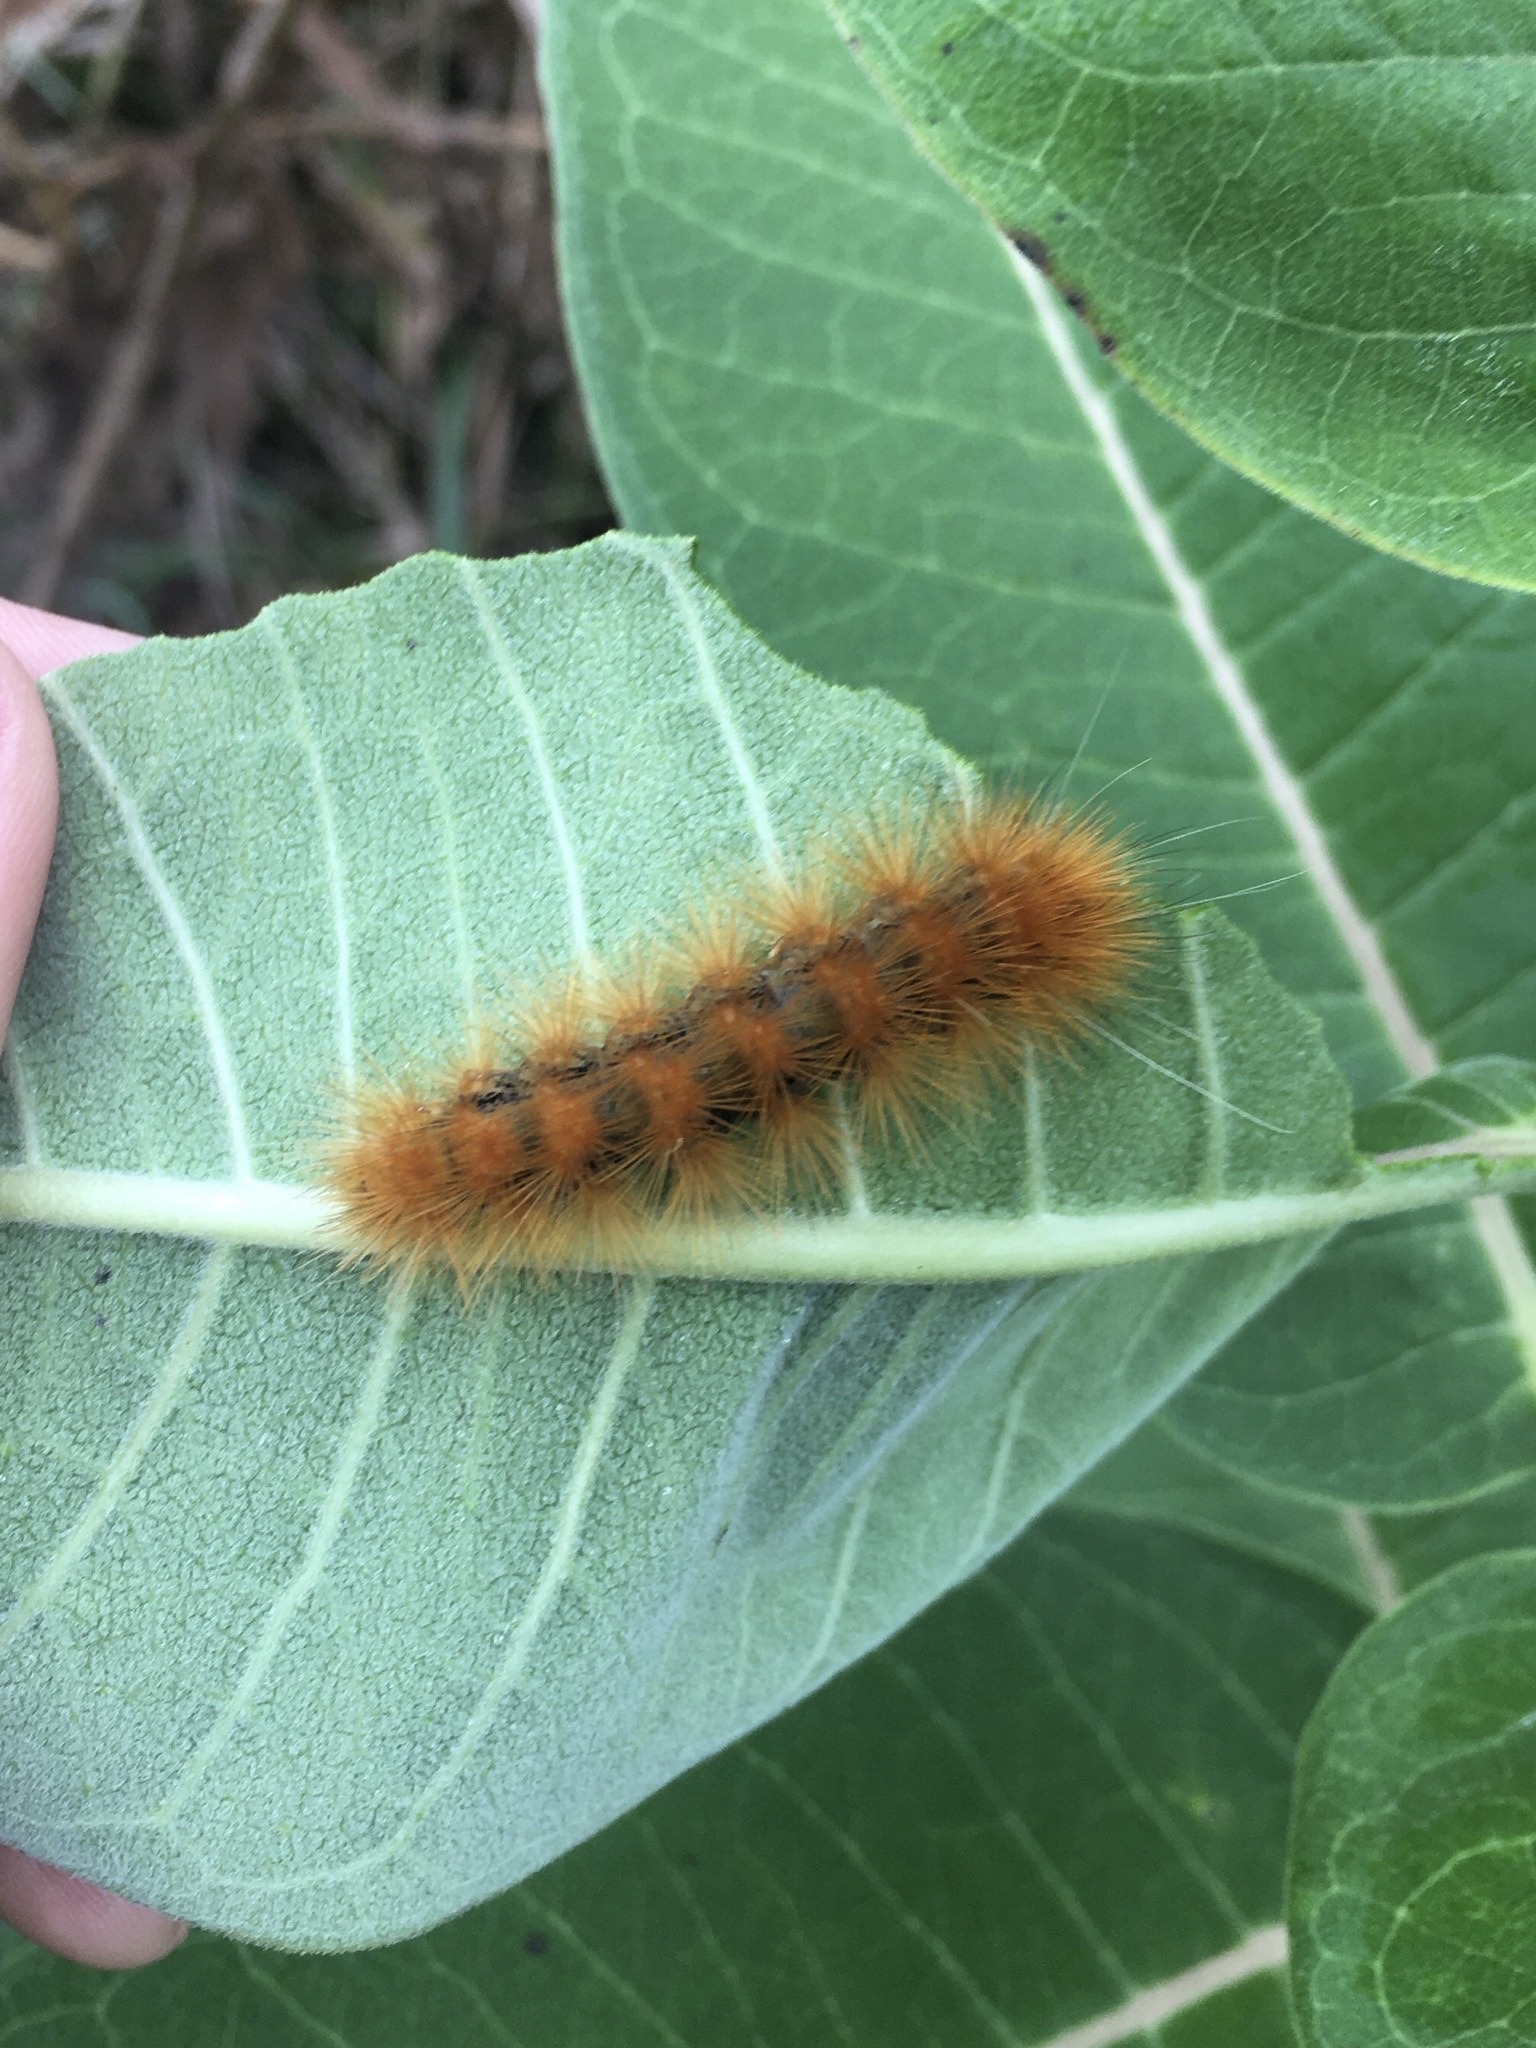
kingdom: Animalia
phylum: Arthropoda
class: Insecta
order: Lepidoptera
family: Erebidae
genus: Spilosoma
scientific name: Spilosoma virginica
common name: Virginia tiger moth
